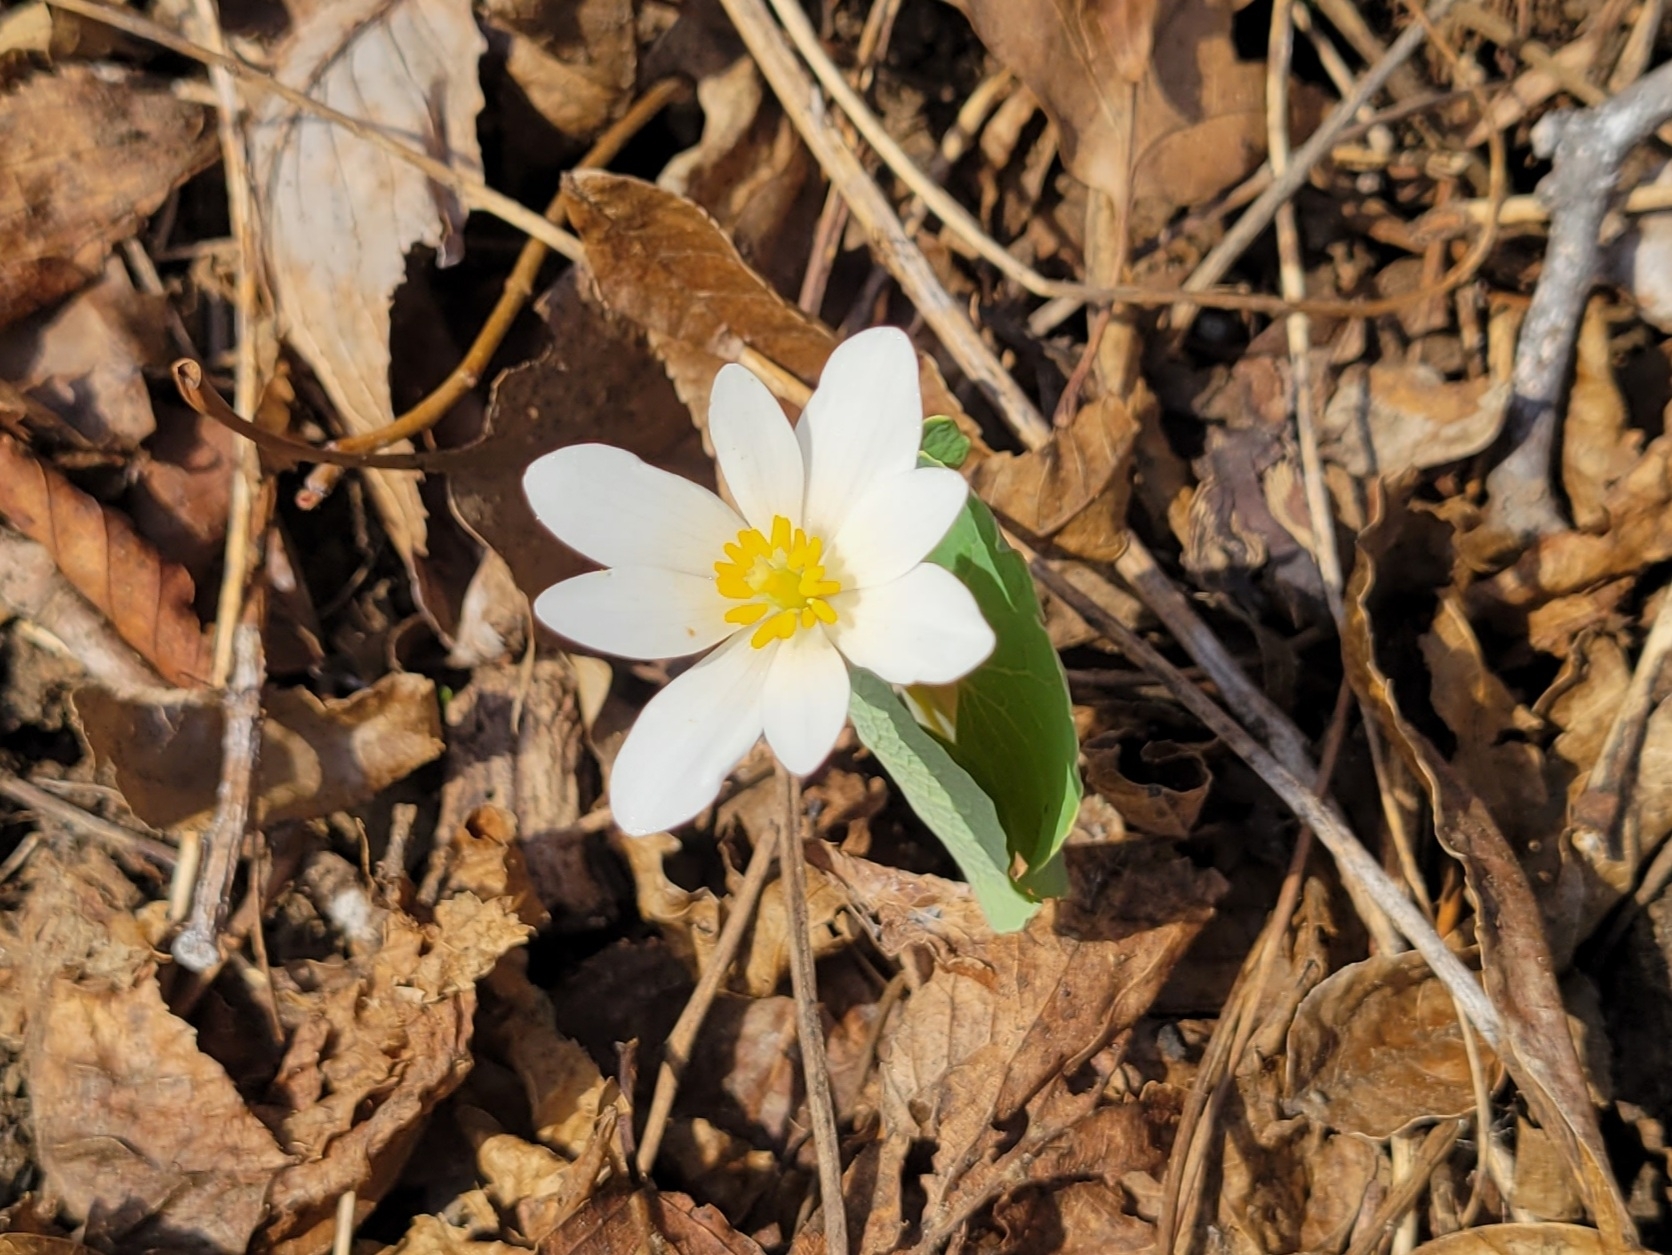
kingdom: Plantae
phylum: Tracheophyta
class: Magnoliopsida
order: Ranunculales
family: Papaveraceae
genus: Sanguinaria
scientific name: Sanguinaria canadensis
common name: Bloodroot
